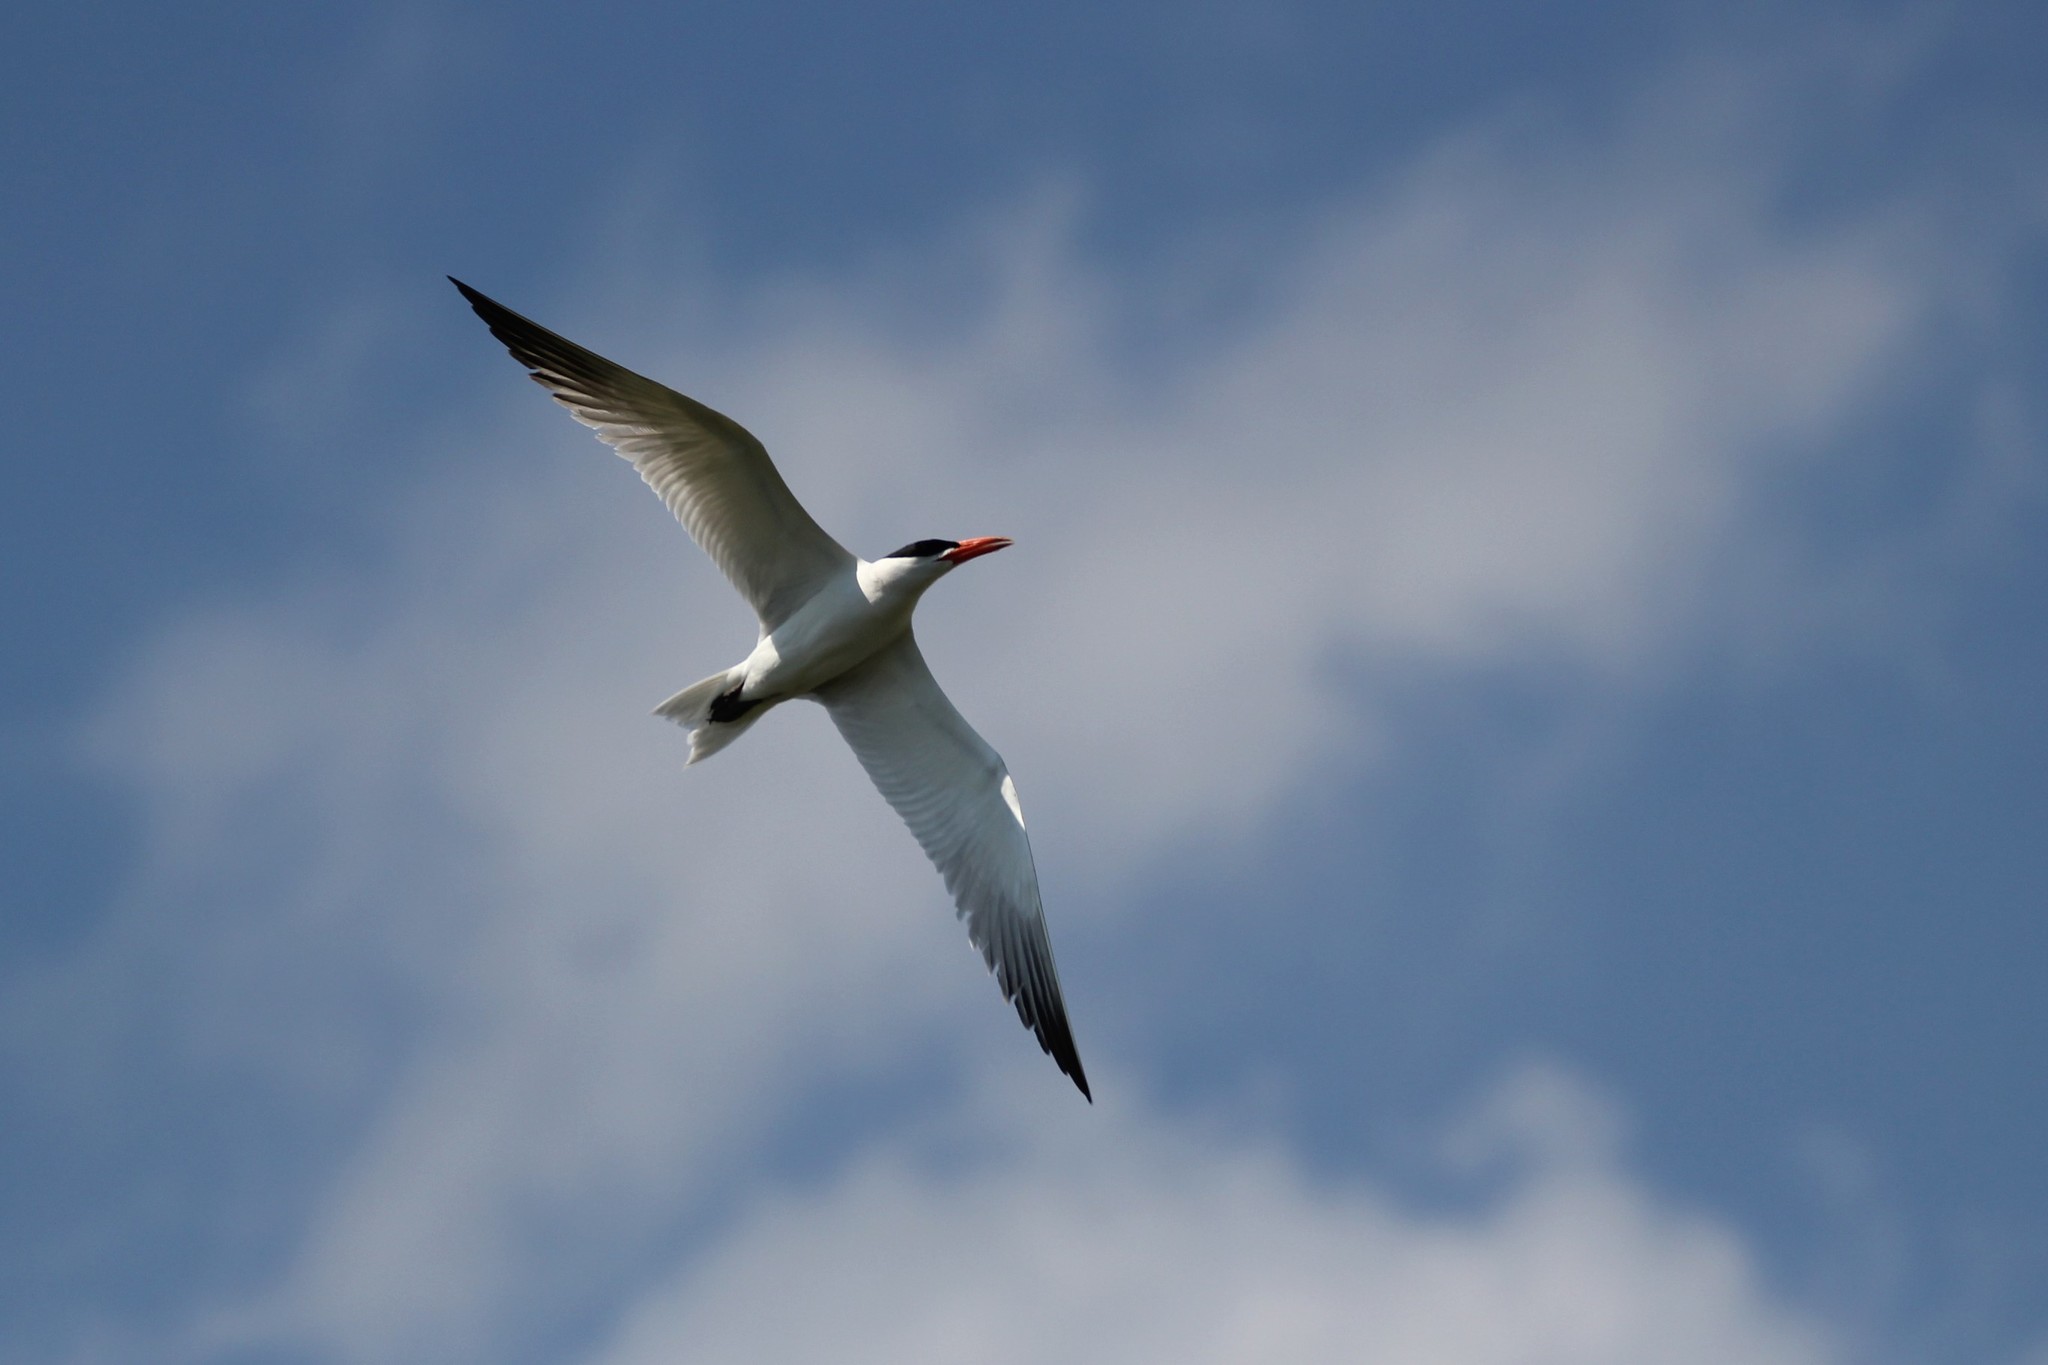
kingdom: Animalia
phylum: Chordata
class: Aves
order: Charadriiformes
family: Laridae
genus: Hydroprogne
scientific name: Hydroprogne caspia
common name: Caspian tern
